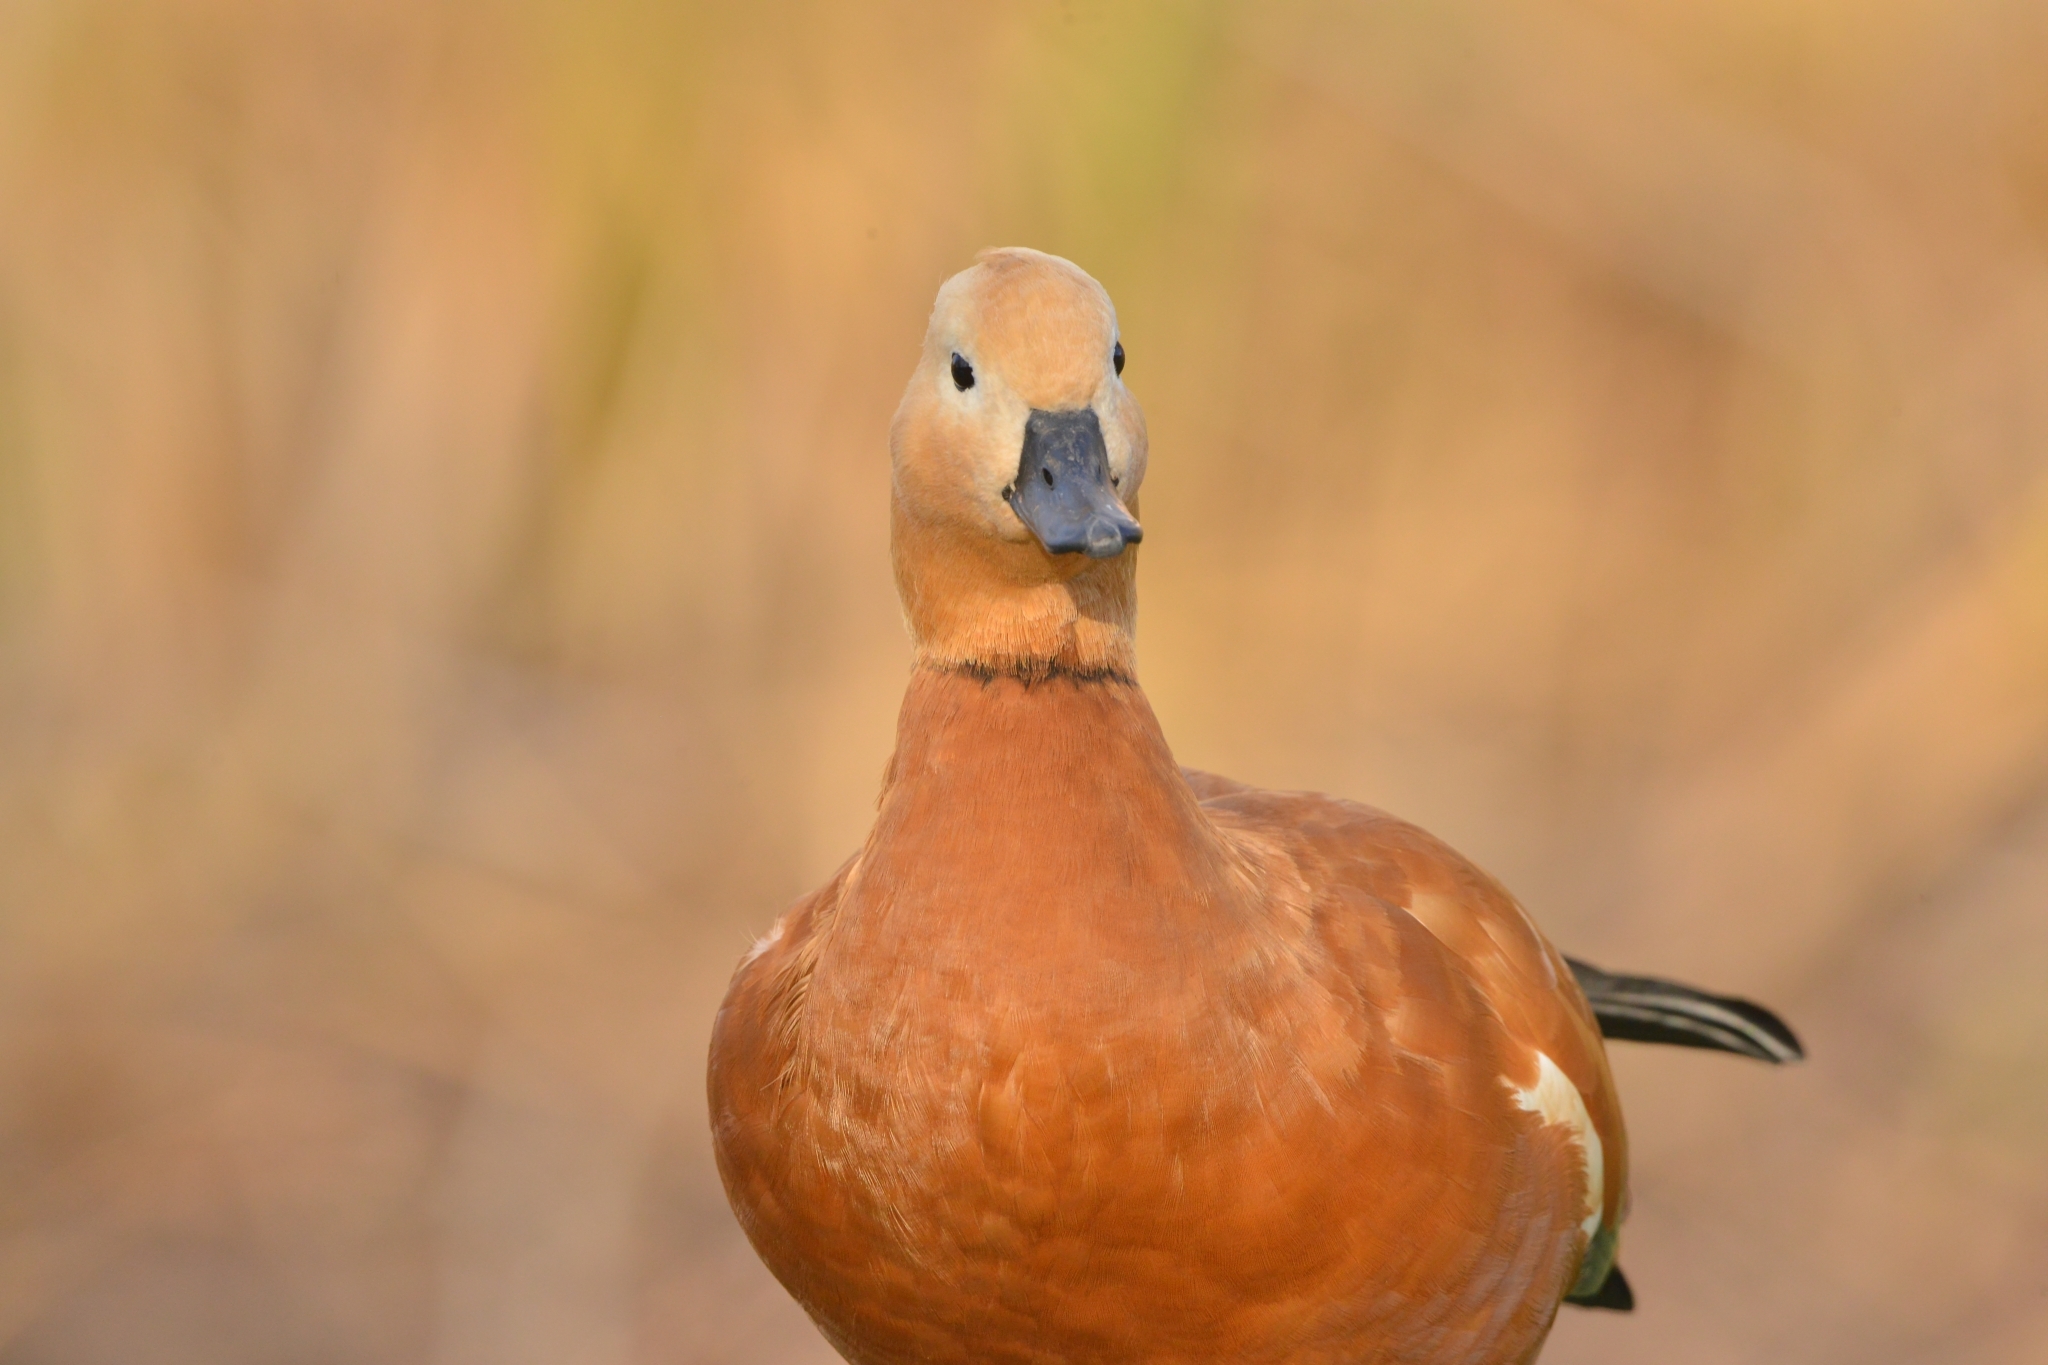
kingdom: Animalia
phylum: Chordata
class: Aves
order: Anseriformes
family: Anatidae
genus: Tadorna
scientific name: Tadorna ferruginea
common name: Ruddy shelduck
